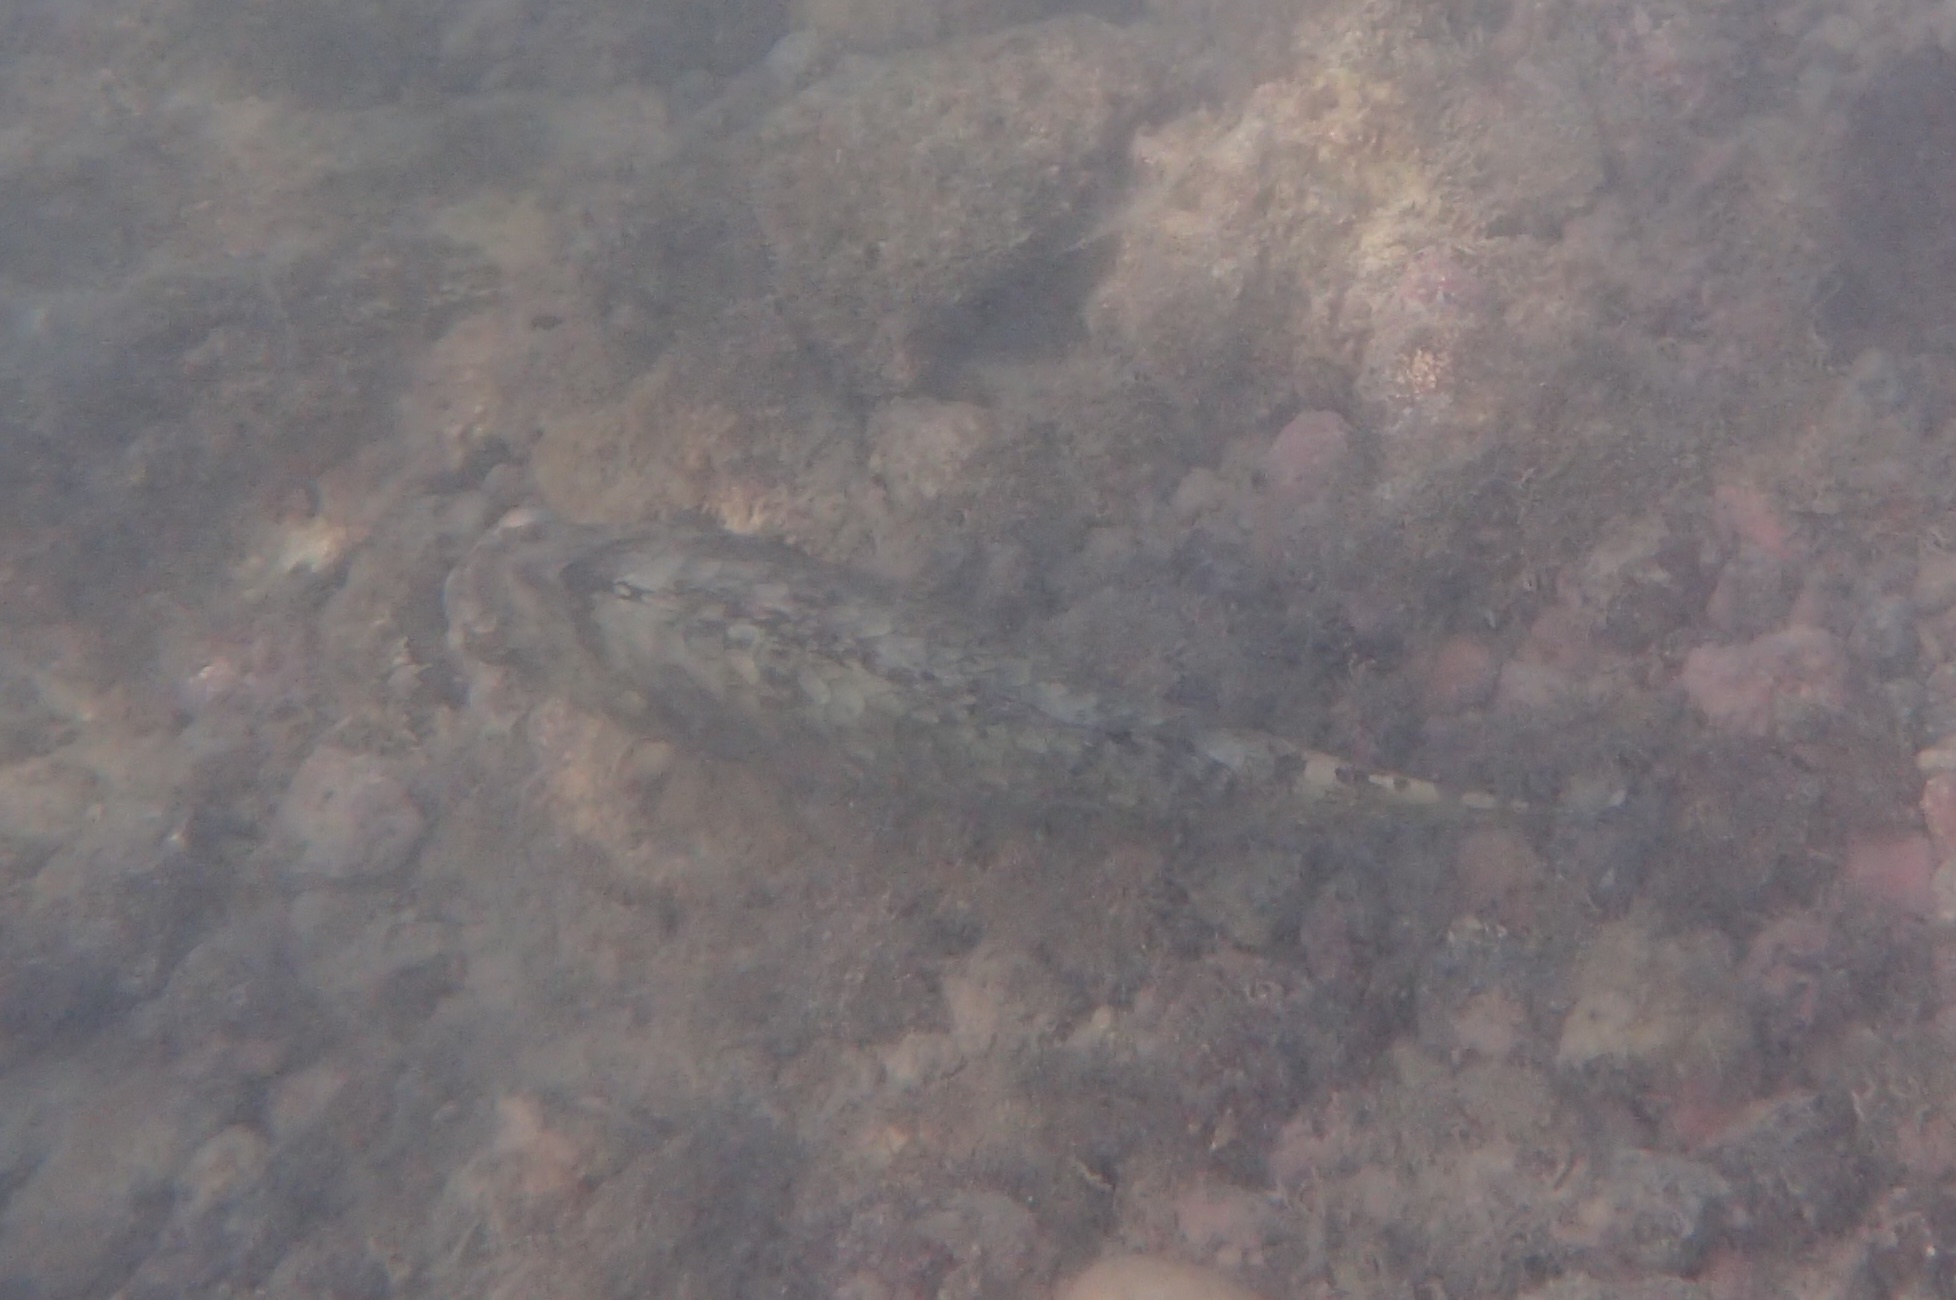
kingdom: Animalia
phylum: Chordata
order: Perciformes
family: Scaridae
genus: Calotomus
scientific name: Calotomus carolinus
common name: Bucktooth
